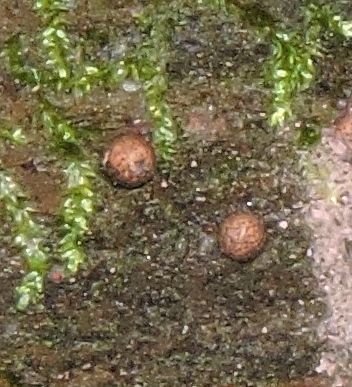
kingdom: Protozoa
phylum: Mycetozoa
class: Myxomycetes
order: Cribrariales
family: Tubiferaceae
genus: Lycogala
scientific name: Lycogala epidendrum
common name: Wolf's milk
